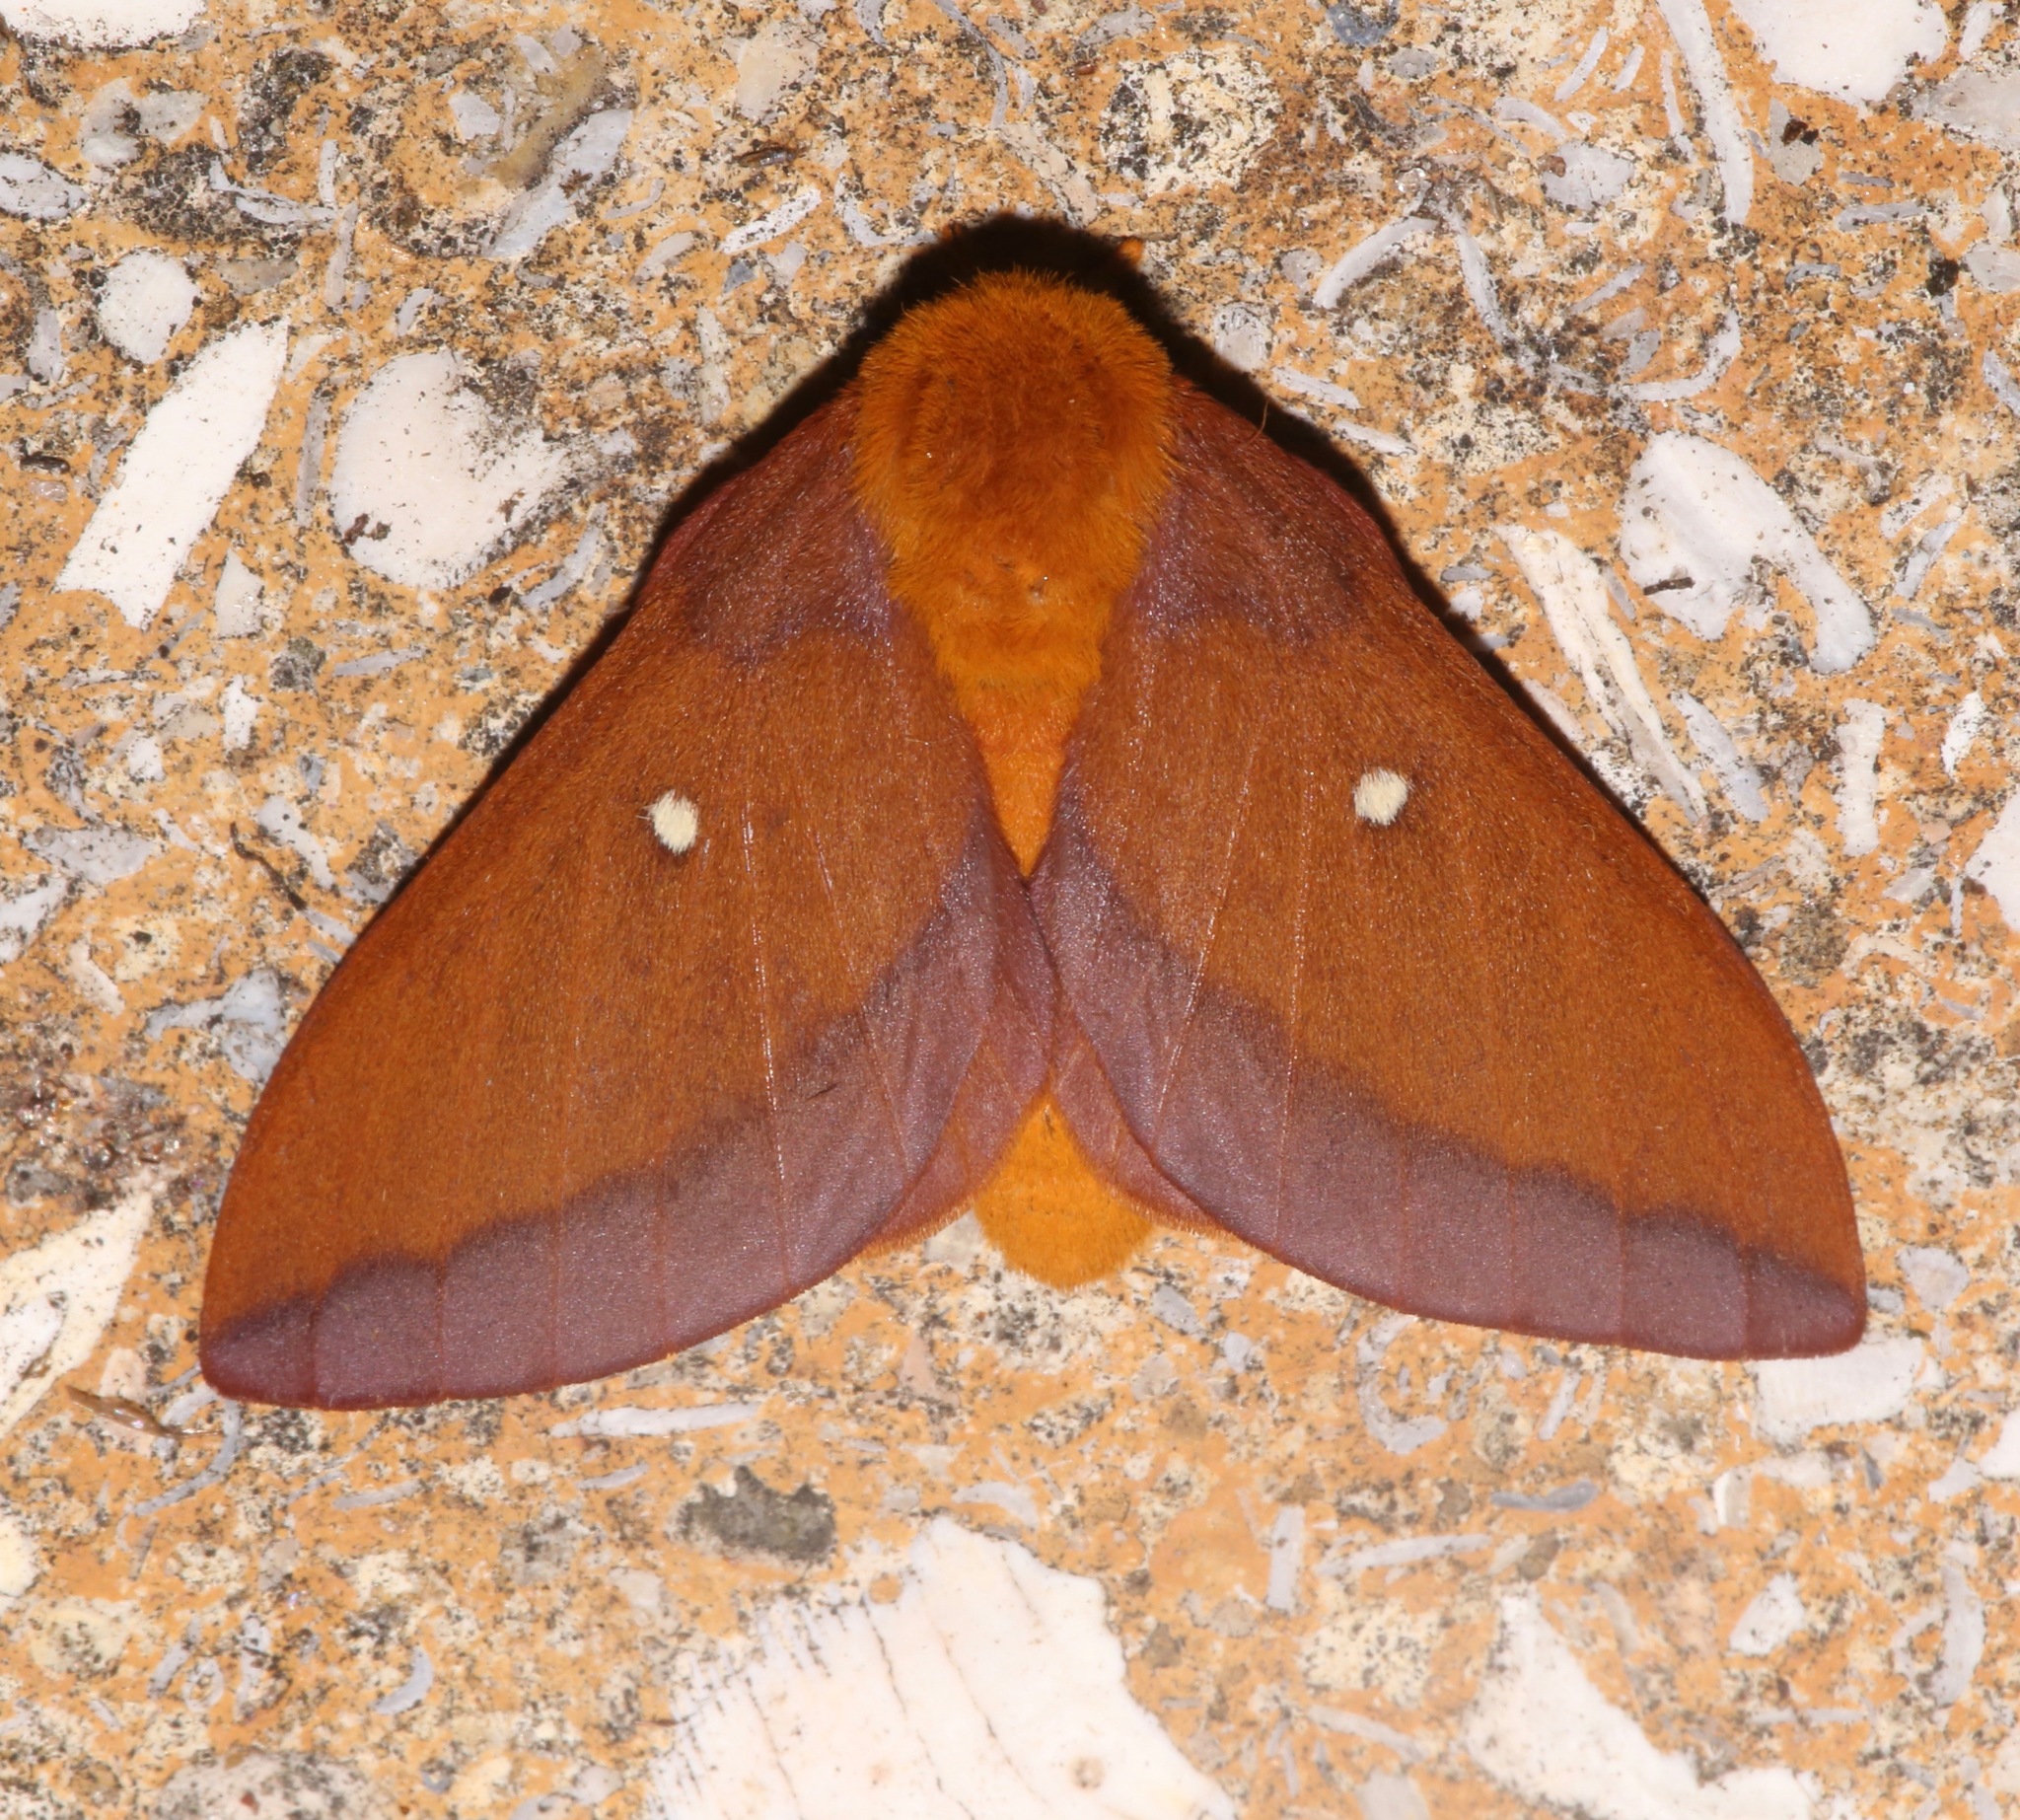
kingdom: Animalia
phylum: Arthropoda
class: Insecta
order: Lepidoptera
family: Saturniidae
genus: Anisota
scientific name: Anisota virginiensis
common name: Pink striped oakworm moth
